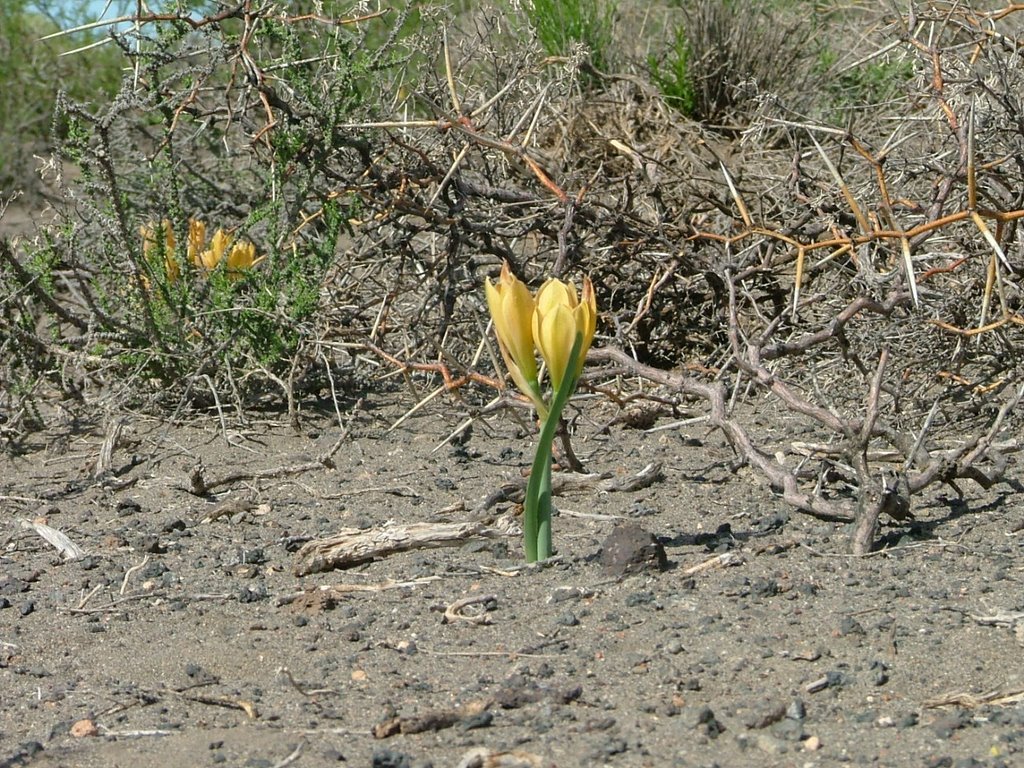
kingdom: Plantae
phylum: Tracheophyta
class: Liliopsida
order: Asparagales
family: Amaryllidaceae
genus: Zephyranthes
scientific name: Zephyranthes gilliesiana
